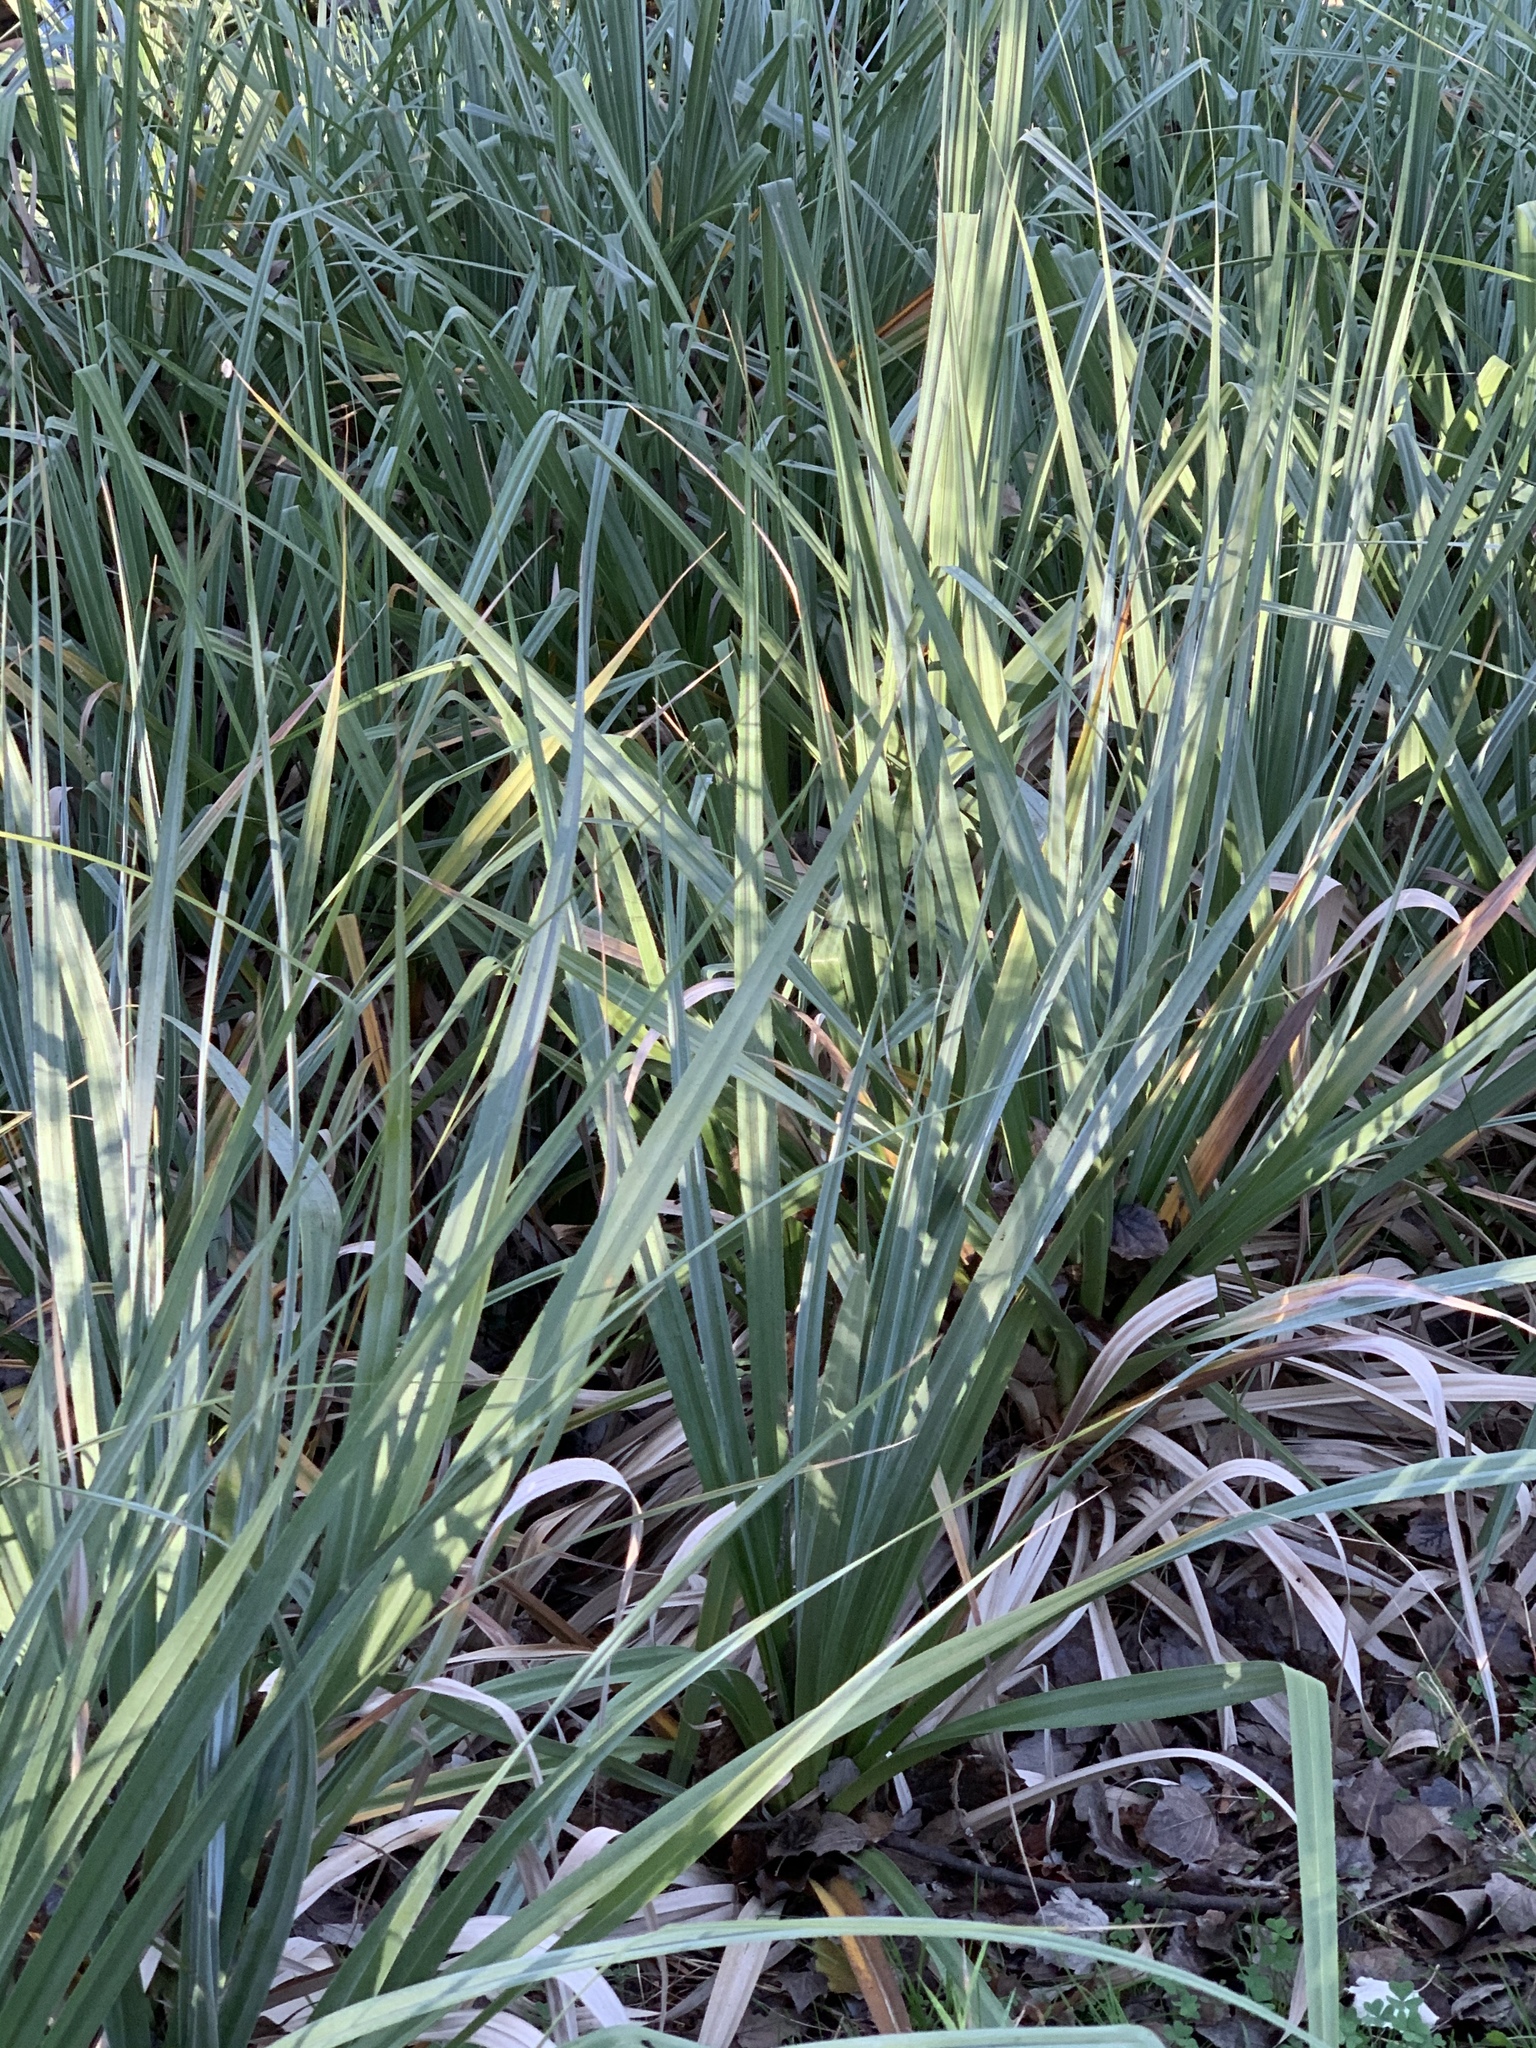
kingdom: Plantae
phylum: Tracheophyta
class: Liliopsida
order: Poales
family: Thurniaceae
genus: Prionium
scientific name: Prionium serratum
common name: Palmiet
